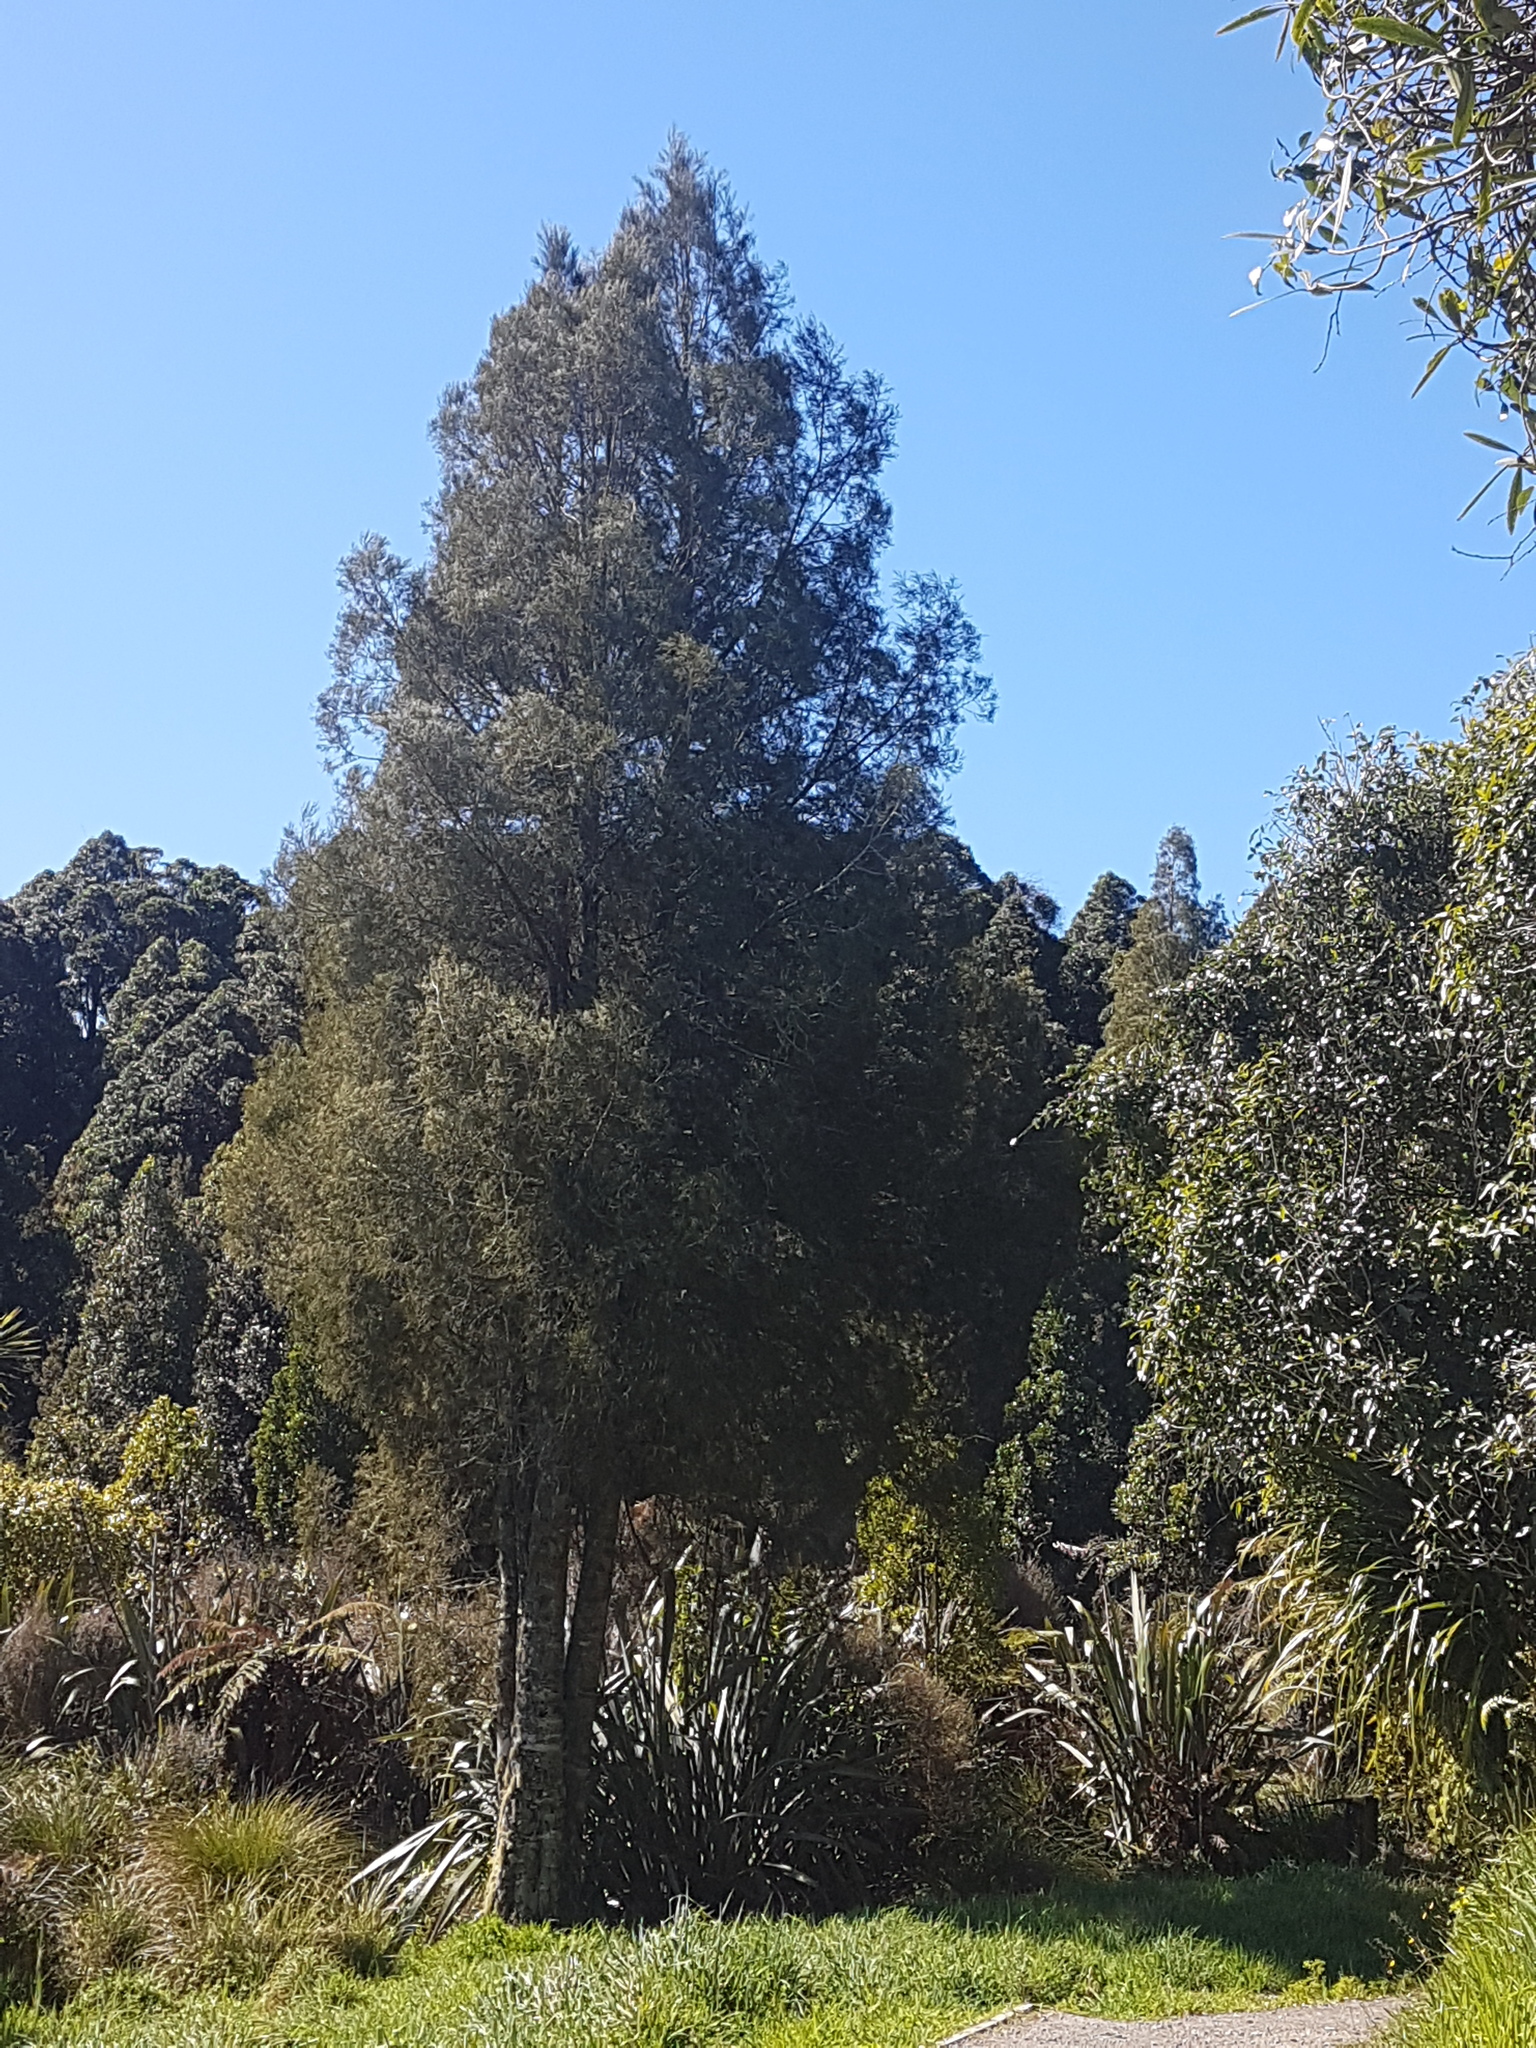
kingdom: Plantae
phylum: Tracheophyta
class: Pinopsida
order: Pinales
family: Podocarpaceae
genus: Dacrycarpus
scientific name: Dacrycarpus dacrydioides
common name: White pine
